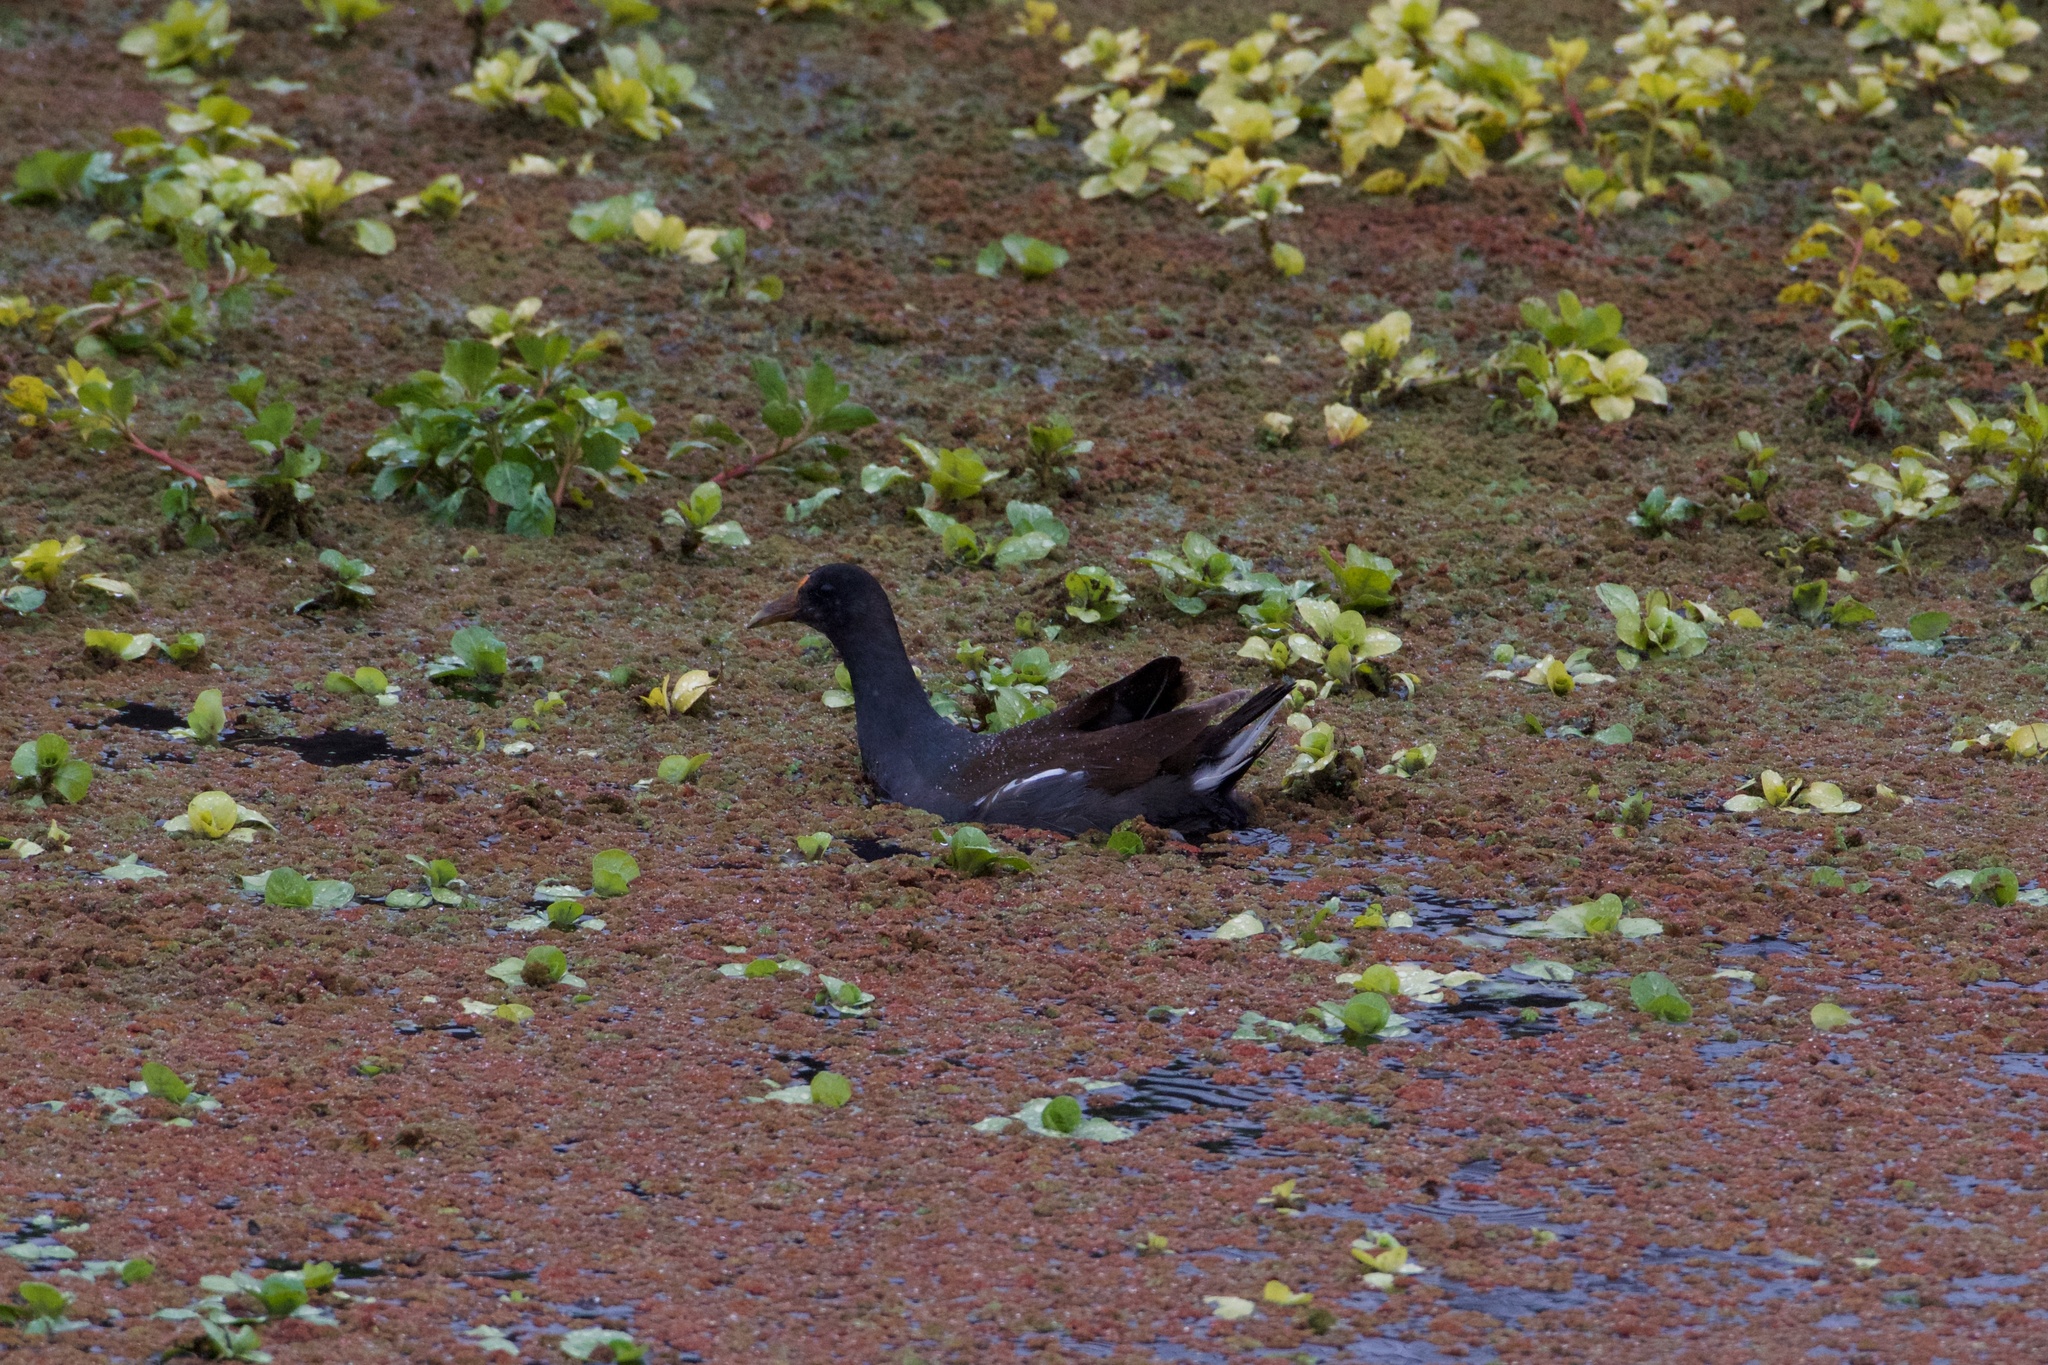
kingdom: Animalia
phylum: Chordata
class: Aves
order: Gruiformes
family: Rallidae
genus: Gallinula
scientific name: Gallinula chloropus
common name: Common moorhen
